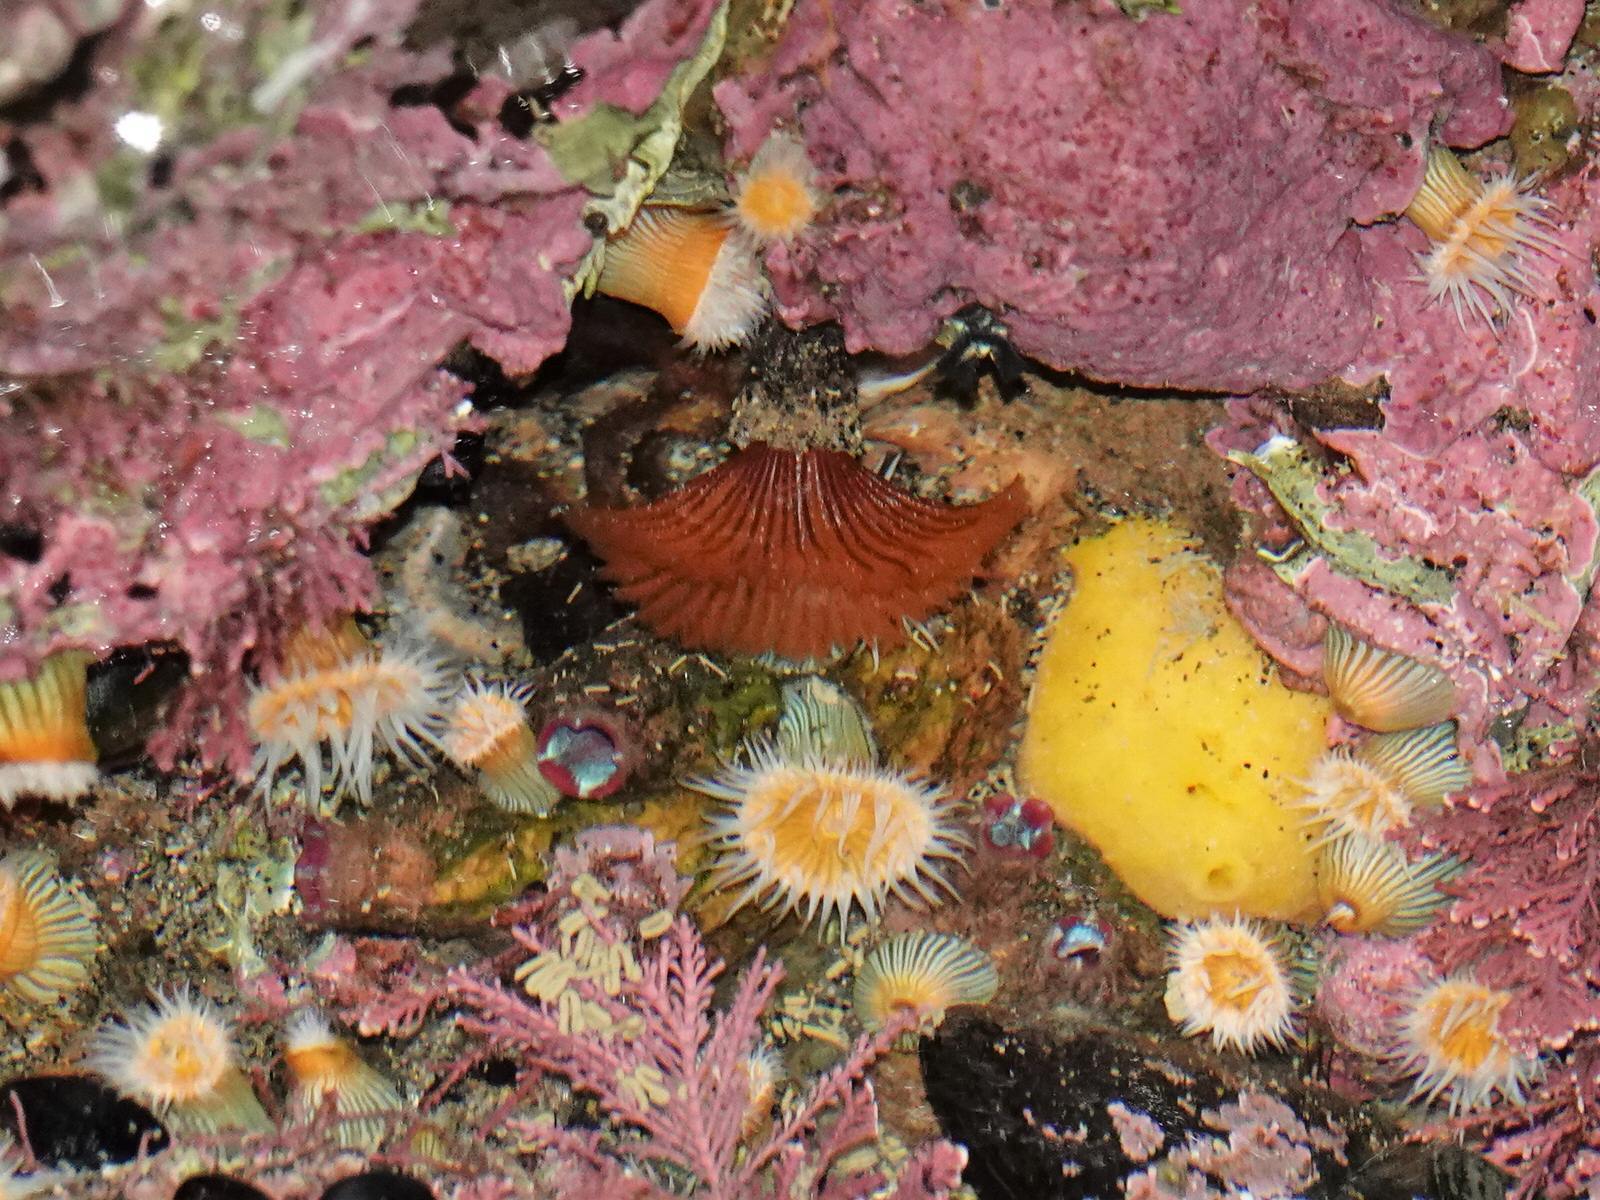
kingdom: Animalia
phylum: Chordata
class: Ascidiacea
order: Stolidobranchia
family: Styelidae
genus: Asterocarpa
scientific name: Asterocarpa humilis
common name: Compass sea squirt
